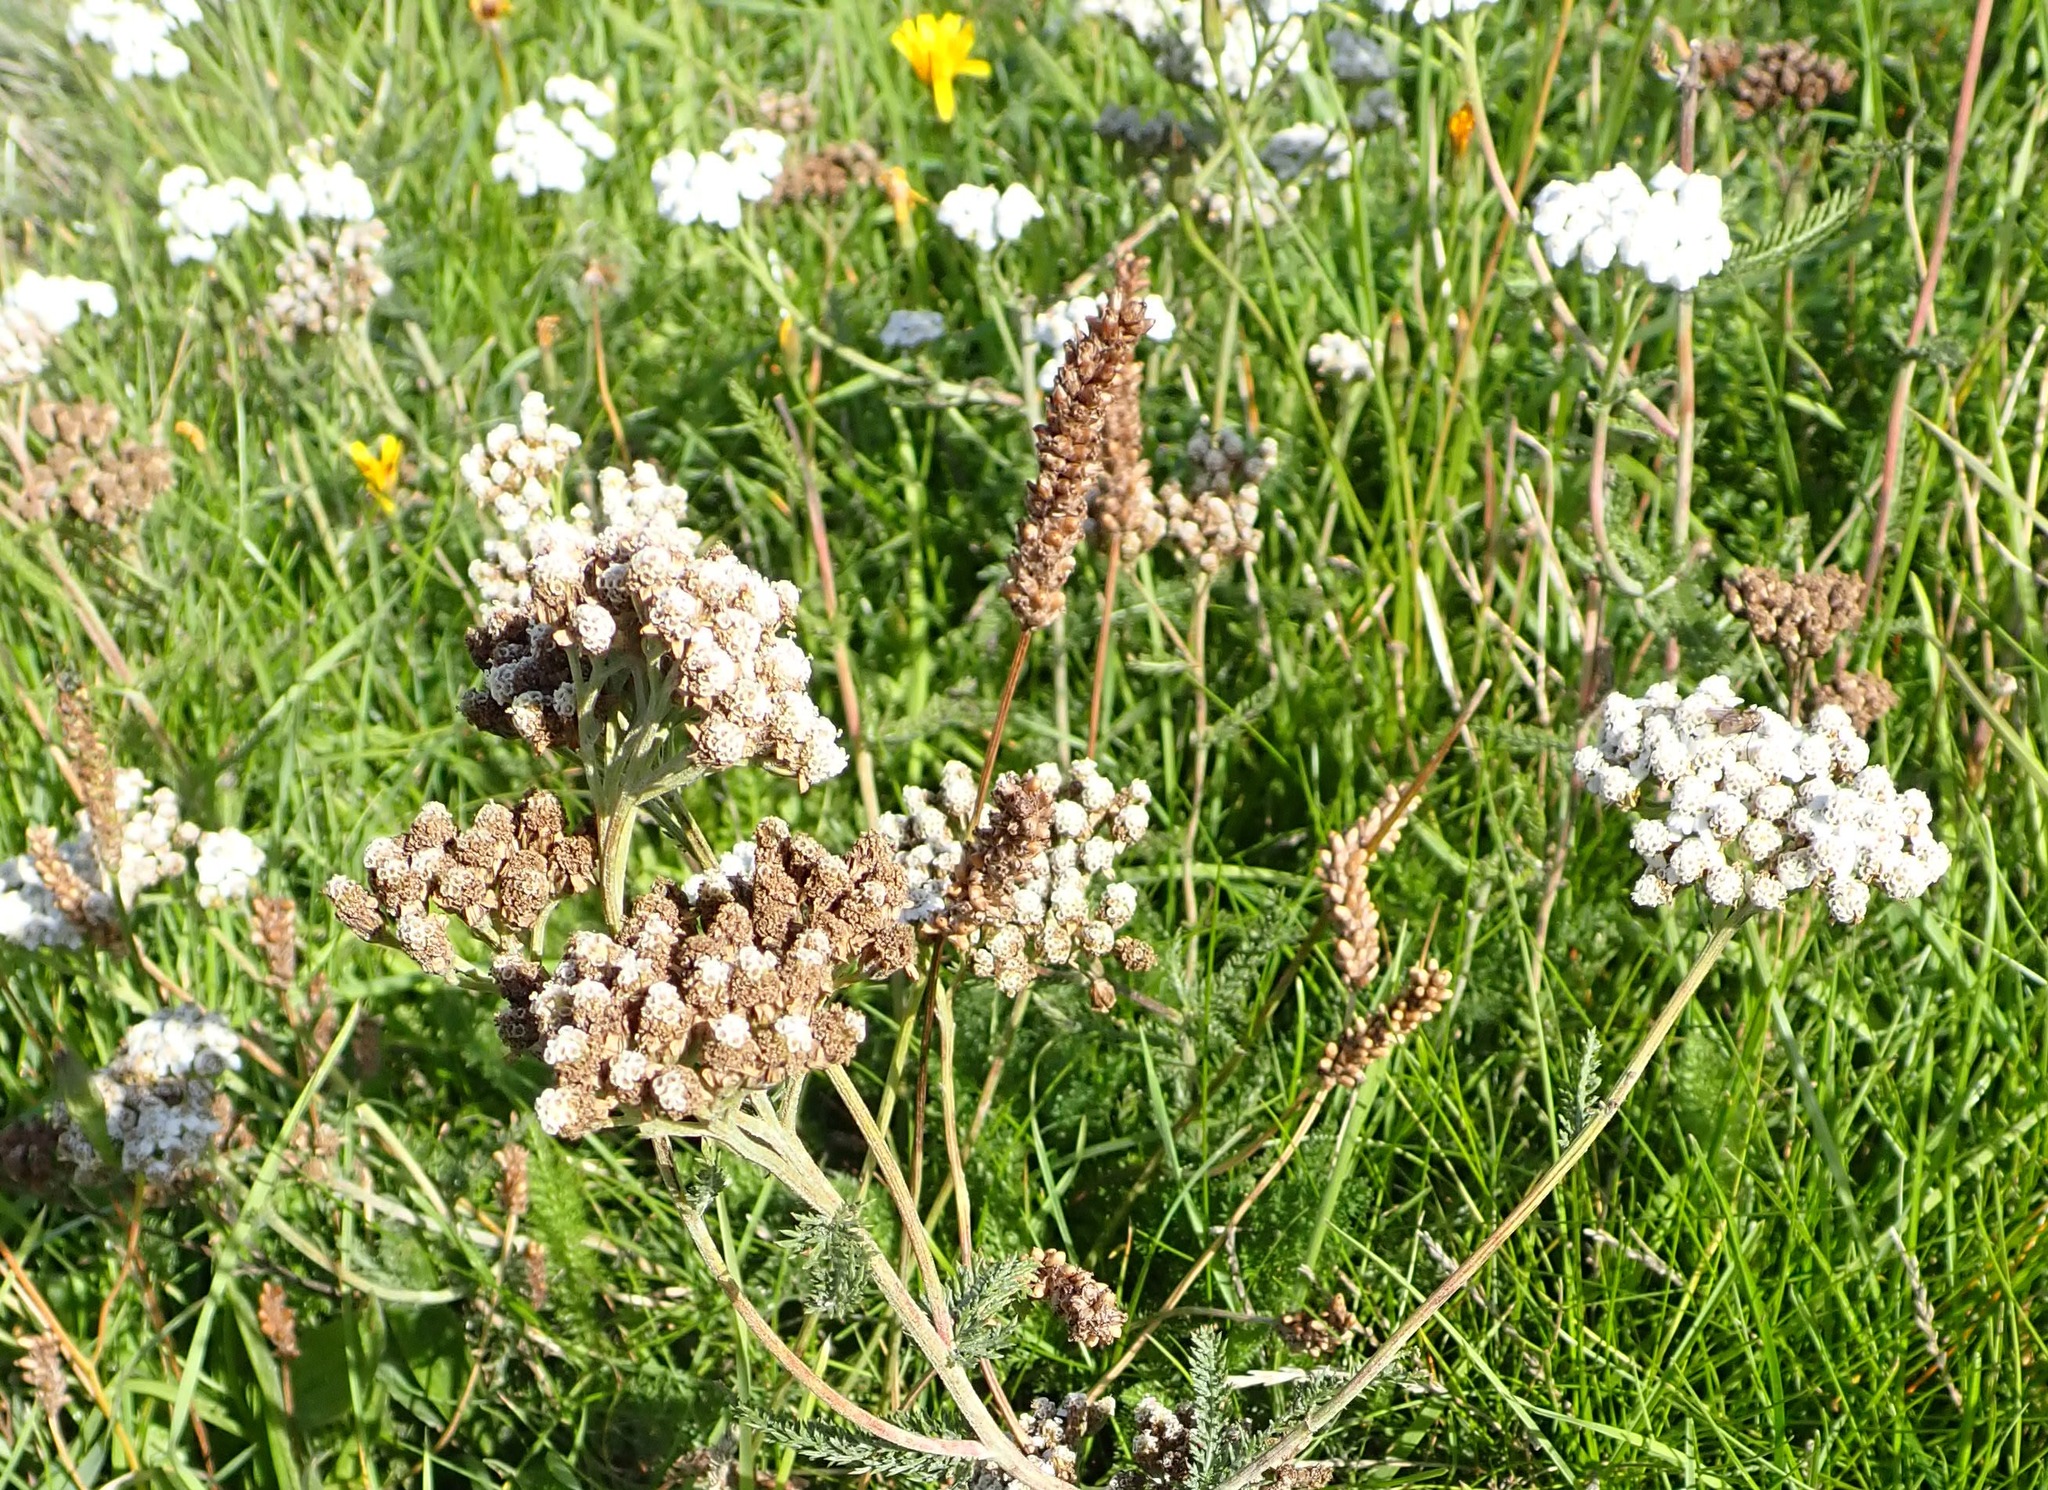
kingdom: Plantae
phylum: Tracheophyta
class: Magnoliopsida
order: Asterales
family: Asteraceae
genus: Achillea
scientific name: Achillea millefolium
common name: Yarrow
